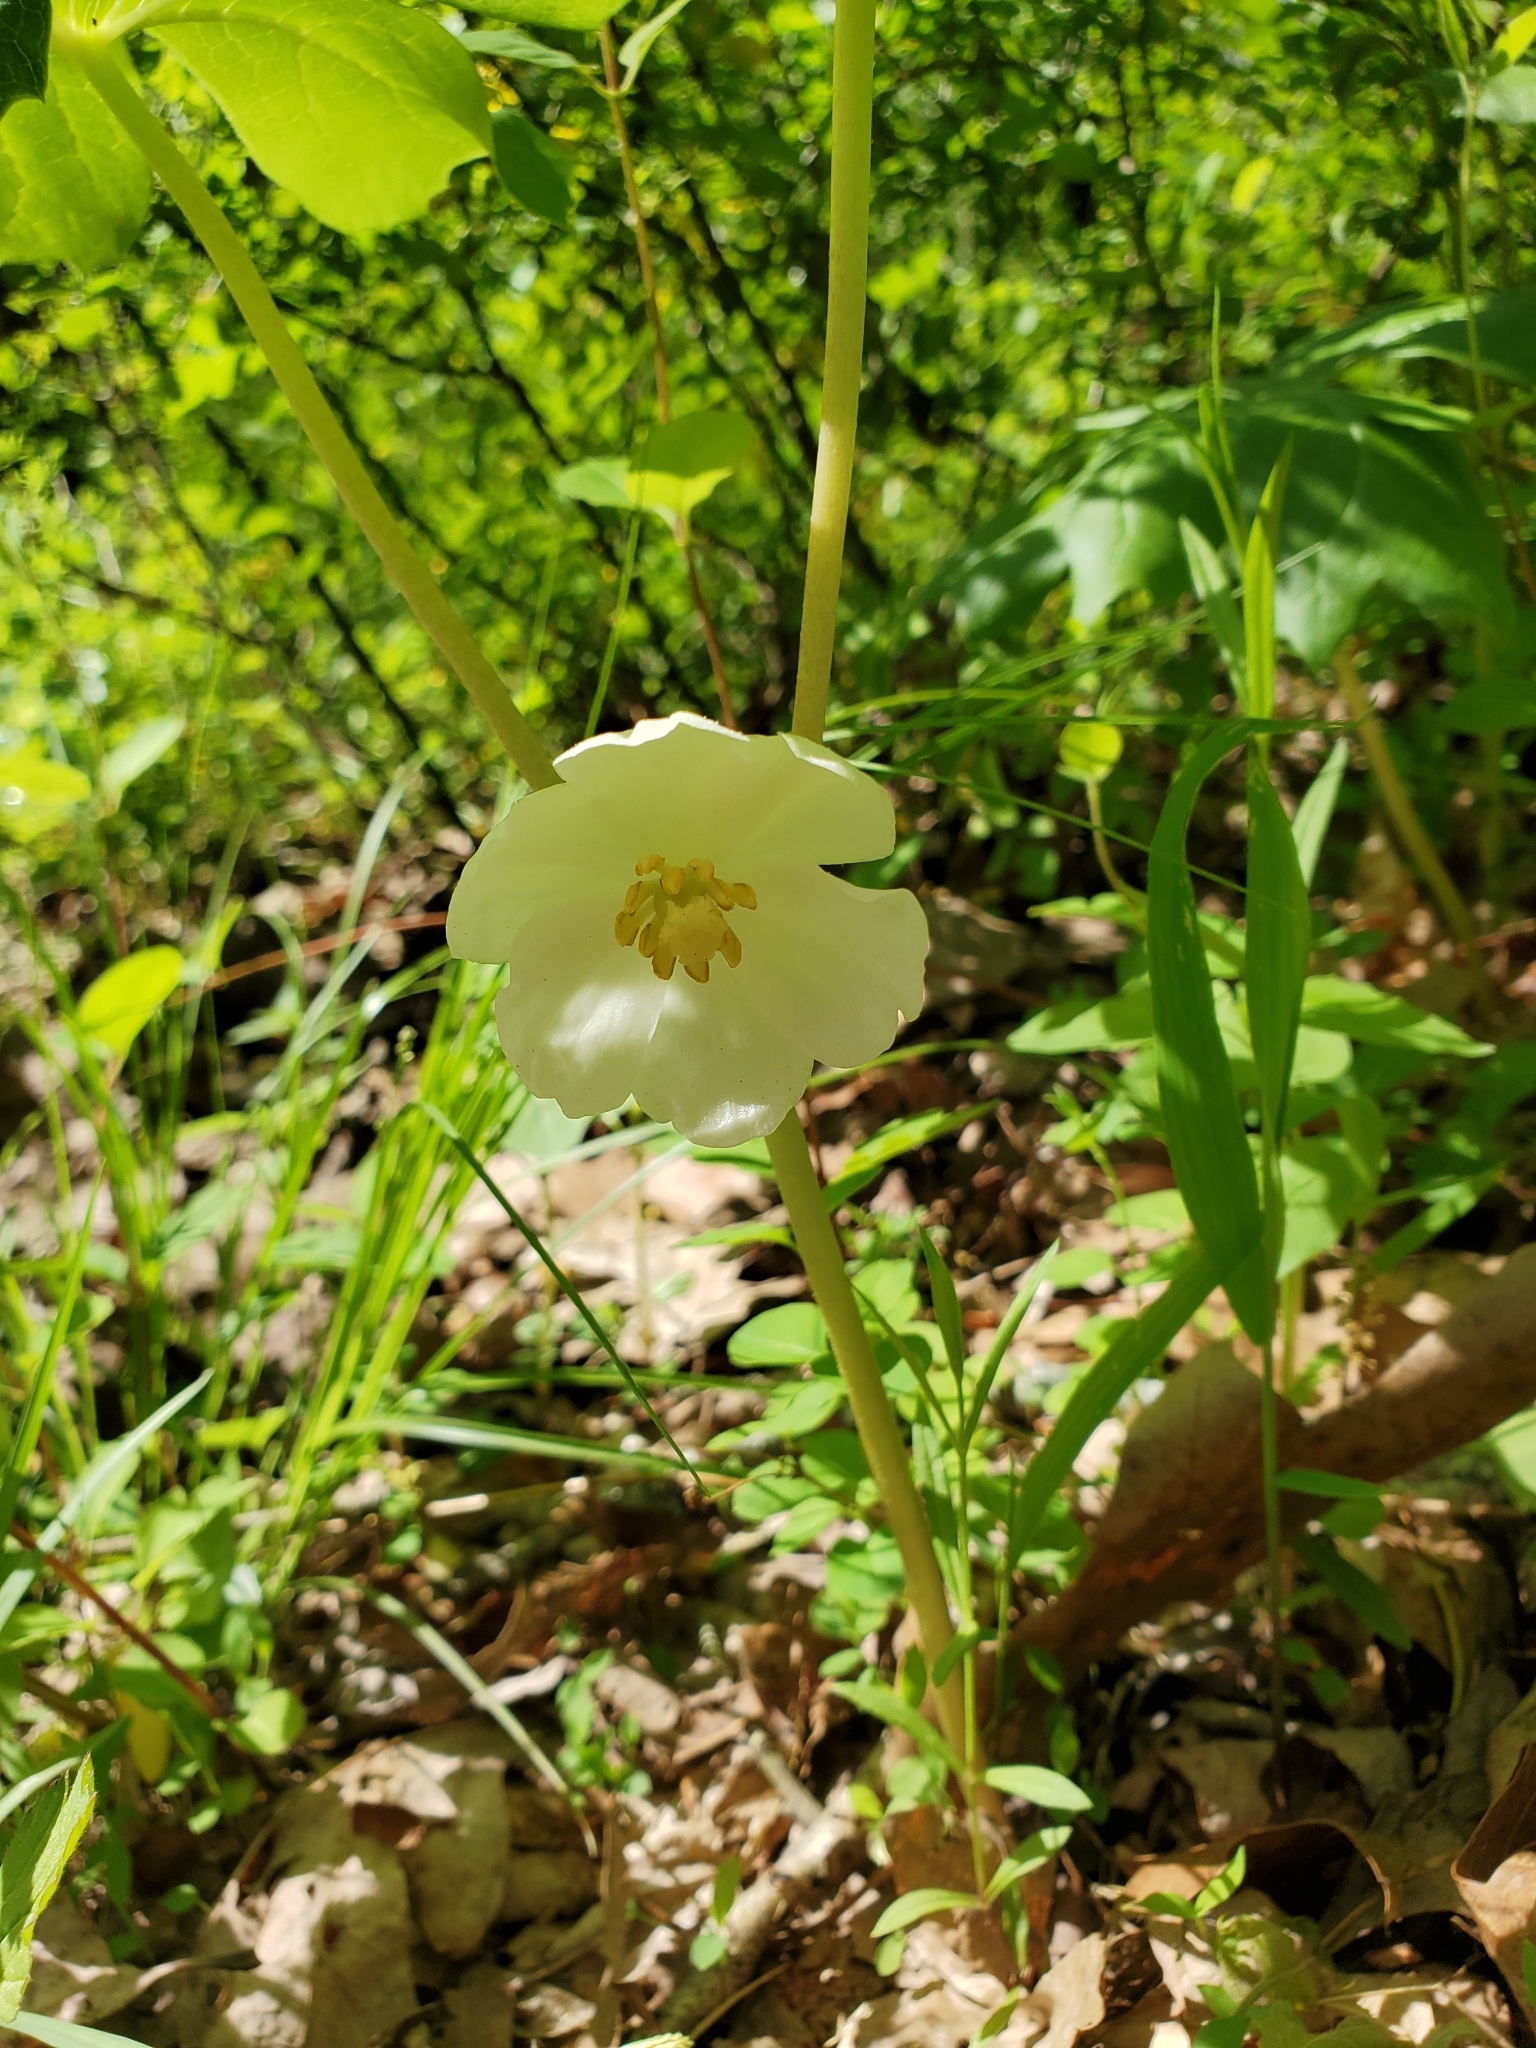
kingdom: Plantae
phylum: Tracheophyta
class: Magnoliopsida
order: Ranunculales
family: Berberidaceae
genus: Podophyllum
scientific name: Podophyllum peltatum
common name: Wild mandrake
